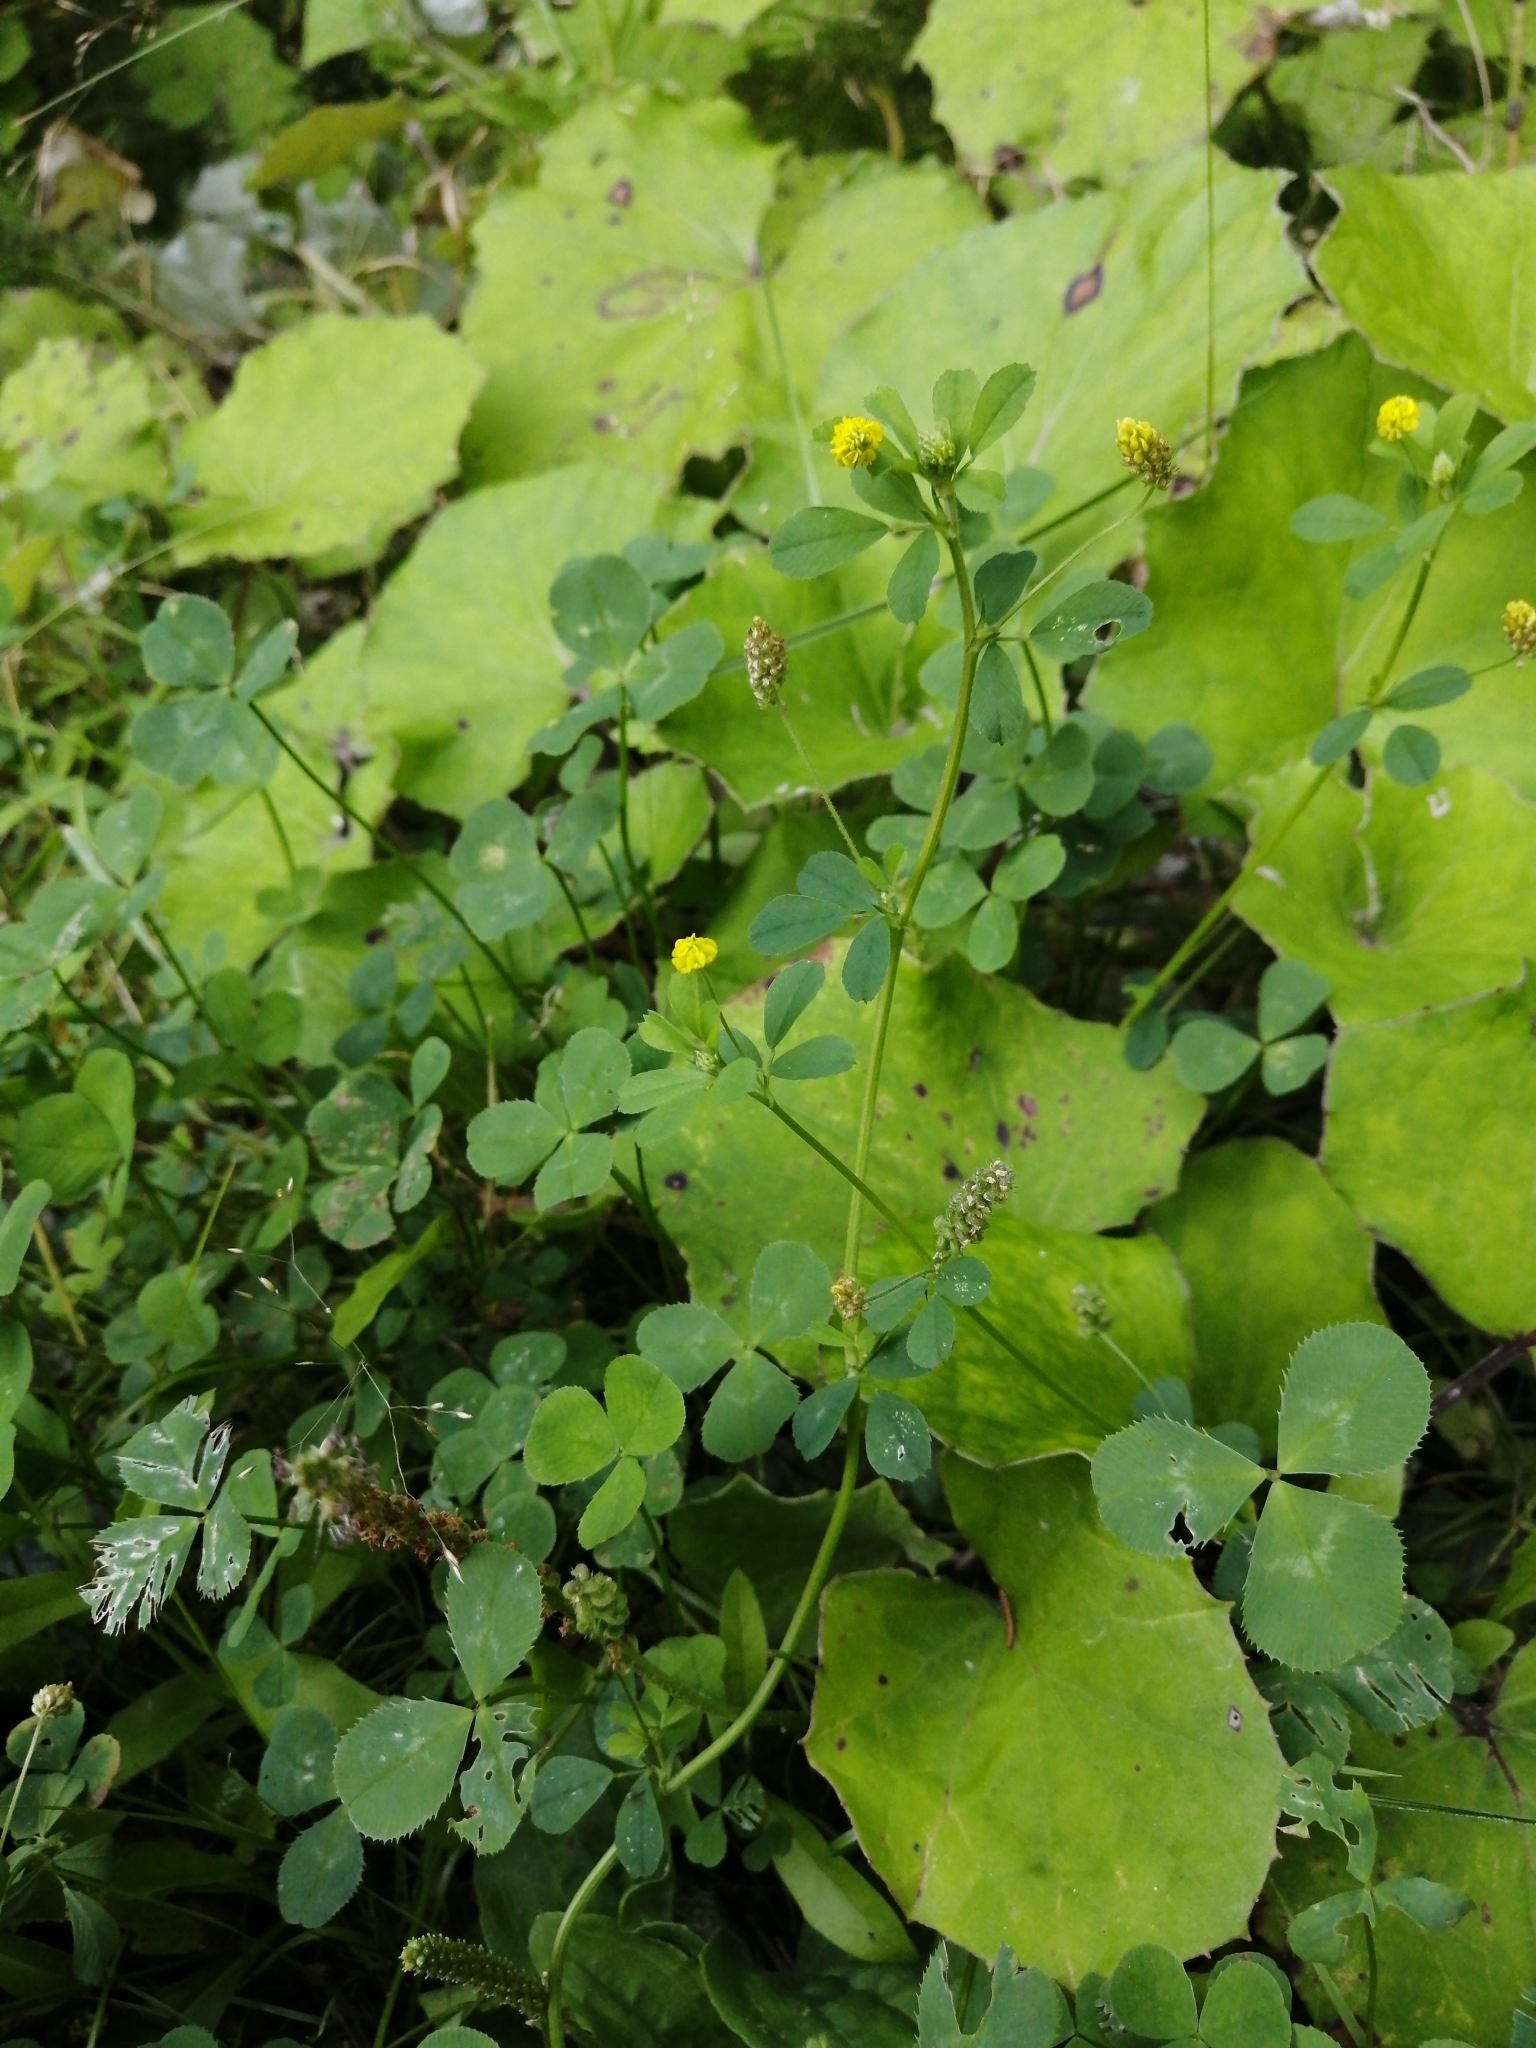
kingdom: Plantae
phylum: Tracheophyta
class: Magnoliopsida
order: Fabales
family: Fabaceae
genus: Medicago
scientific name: Medicago lupulina
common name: Black medick
